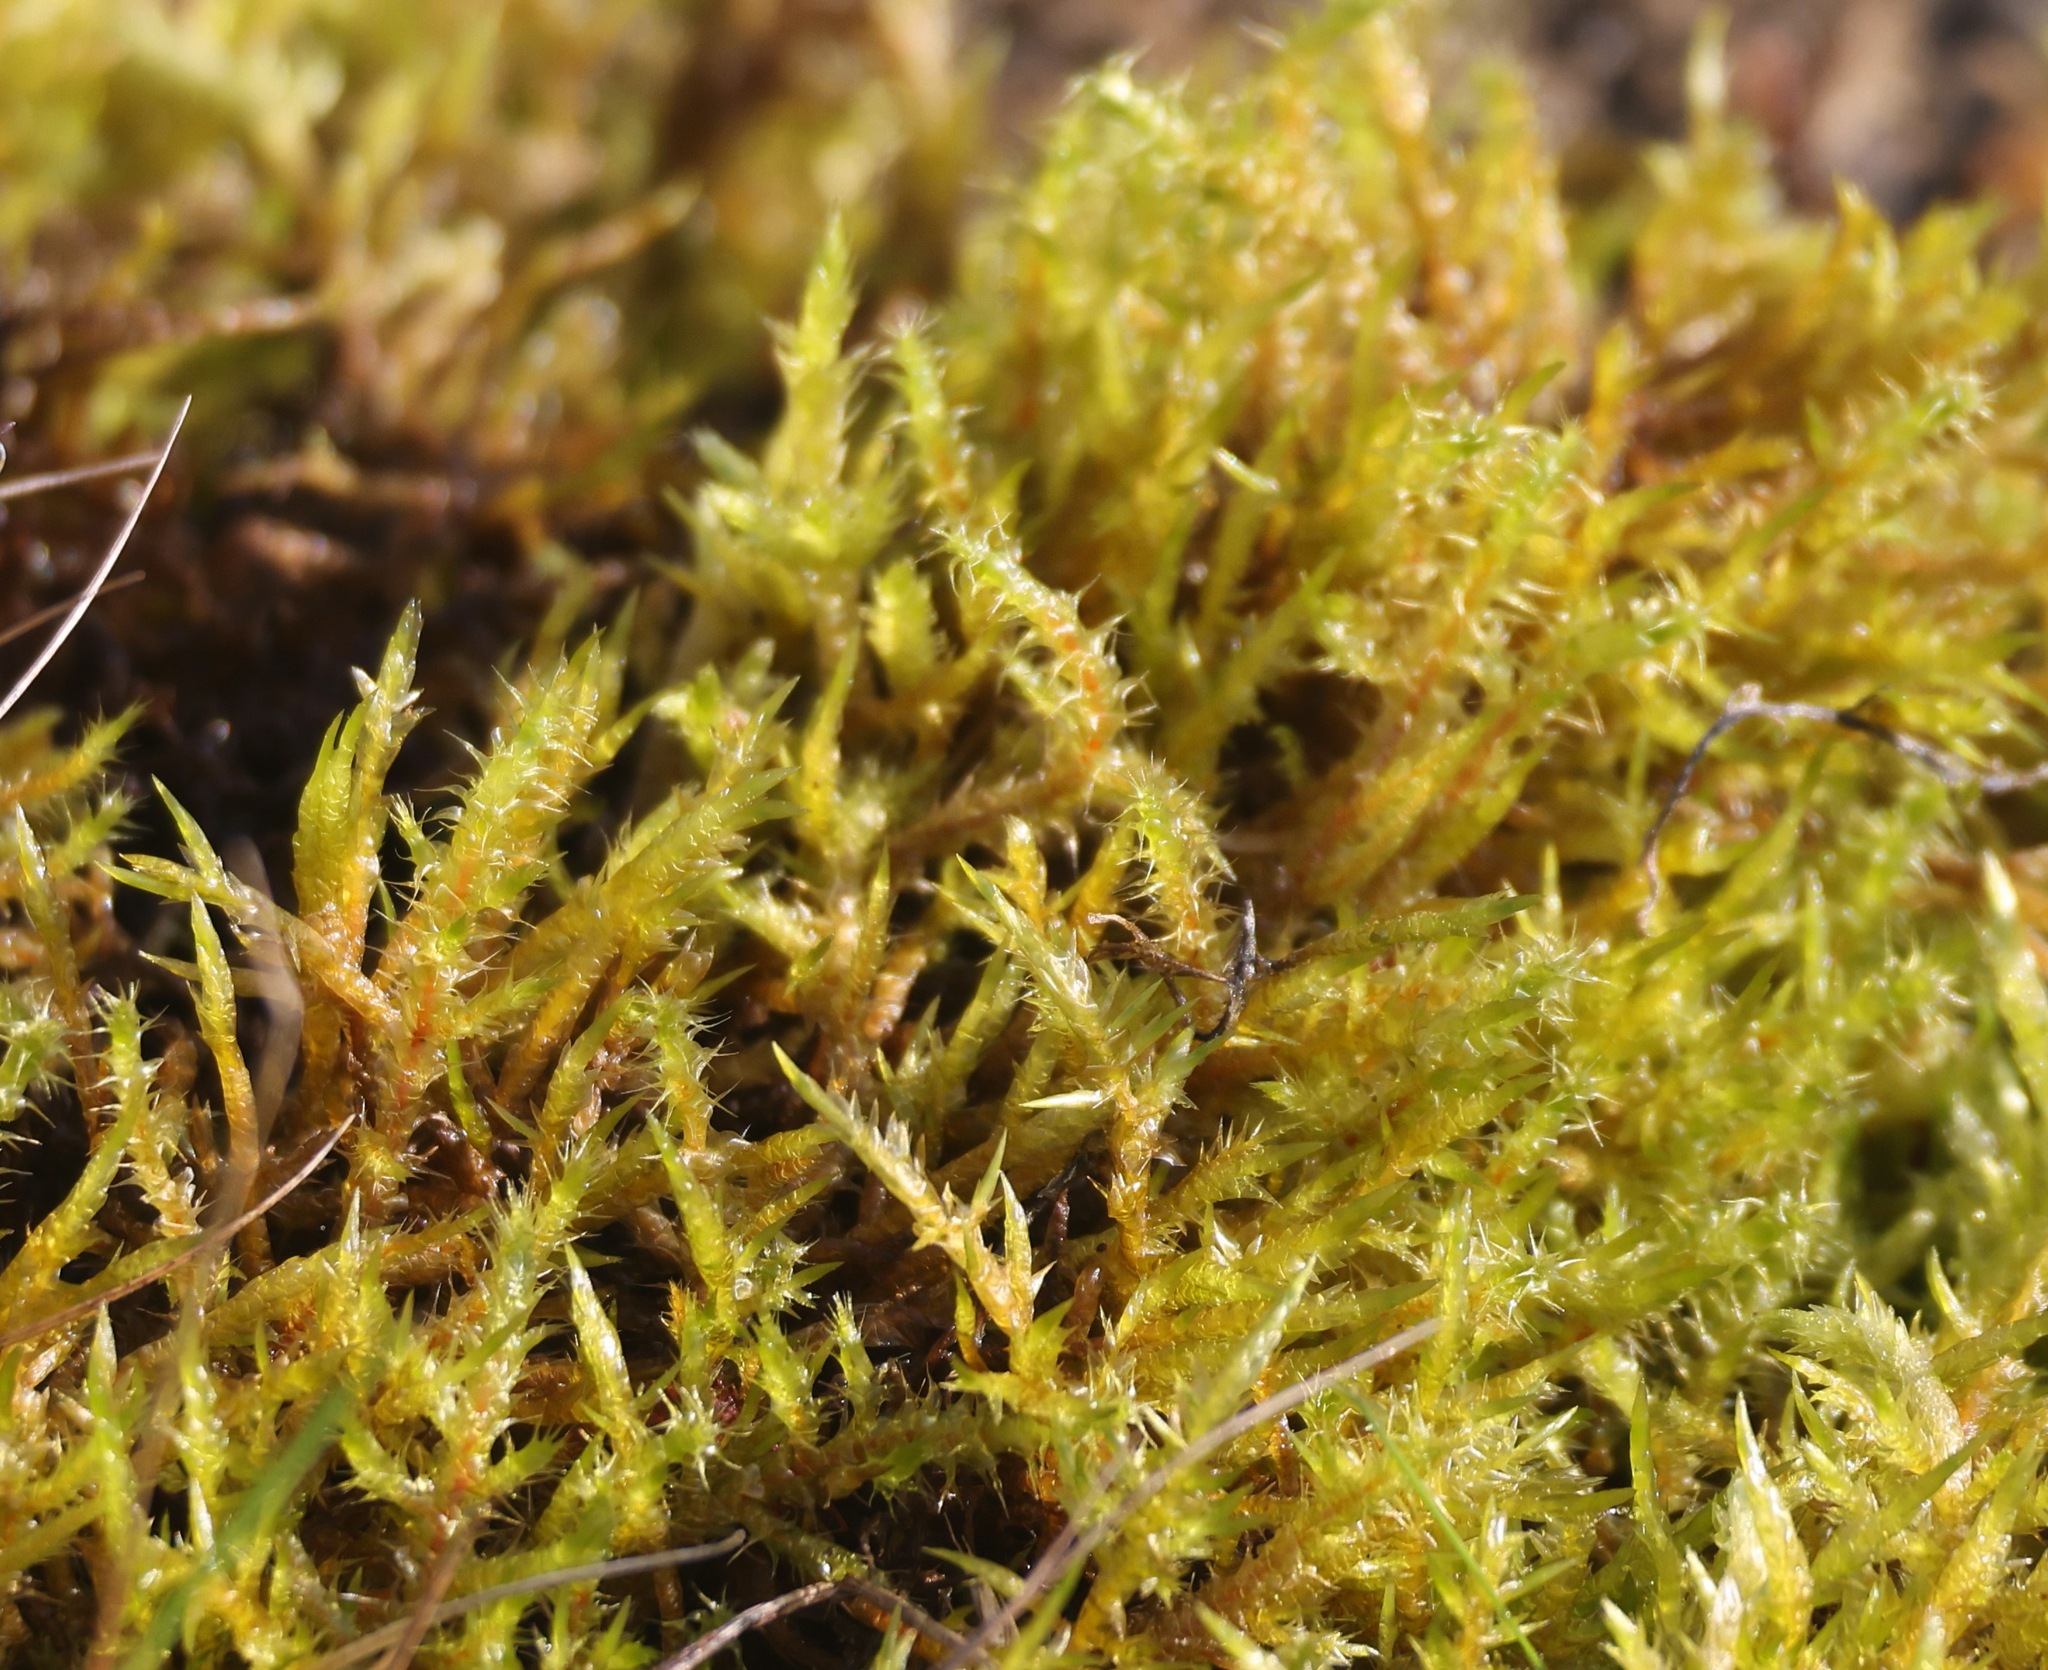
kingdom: Plantae
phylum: Bryophyta
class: Bryopsida
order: Hypnales
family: Hylocomiaceae
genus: Rhytidiadelphus
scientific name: Rhytidiadelphus squarrosus
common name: Springy turf-moss
